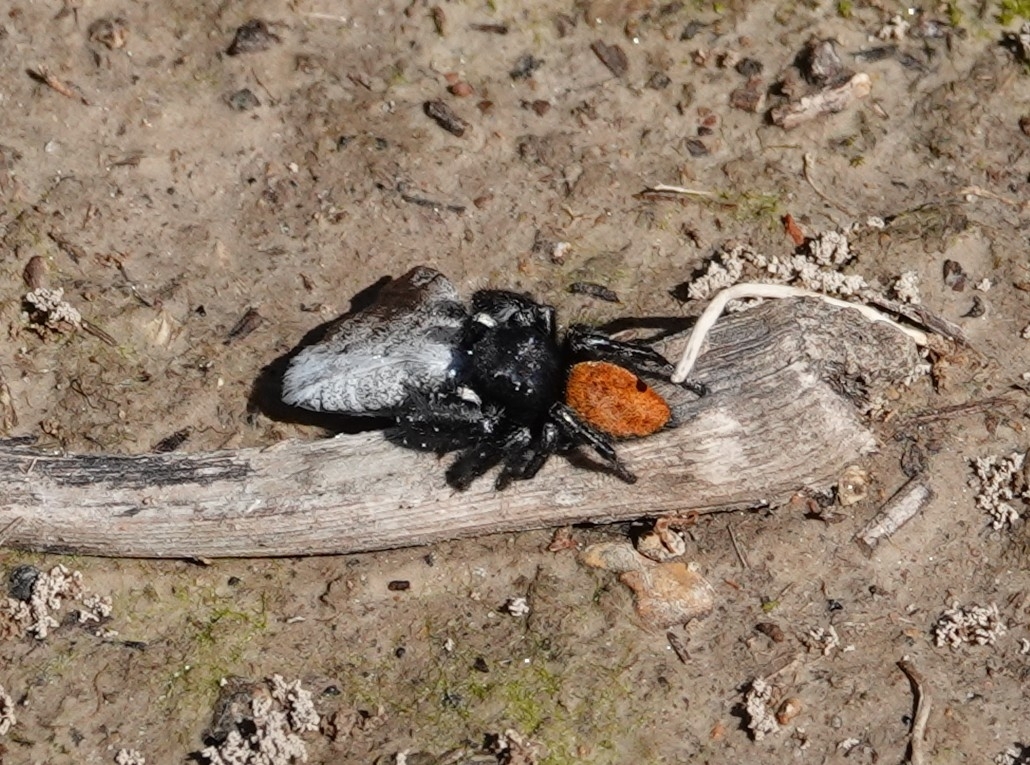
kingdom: Animalia
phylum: Arthropoda
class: Arachnida
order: Araneae
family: Salticidae
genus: Phidippus
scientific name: Phidippus princeps
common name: Grayish jumping spider
